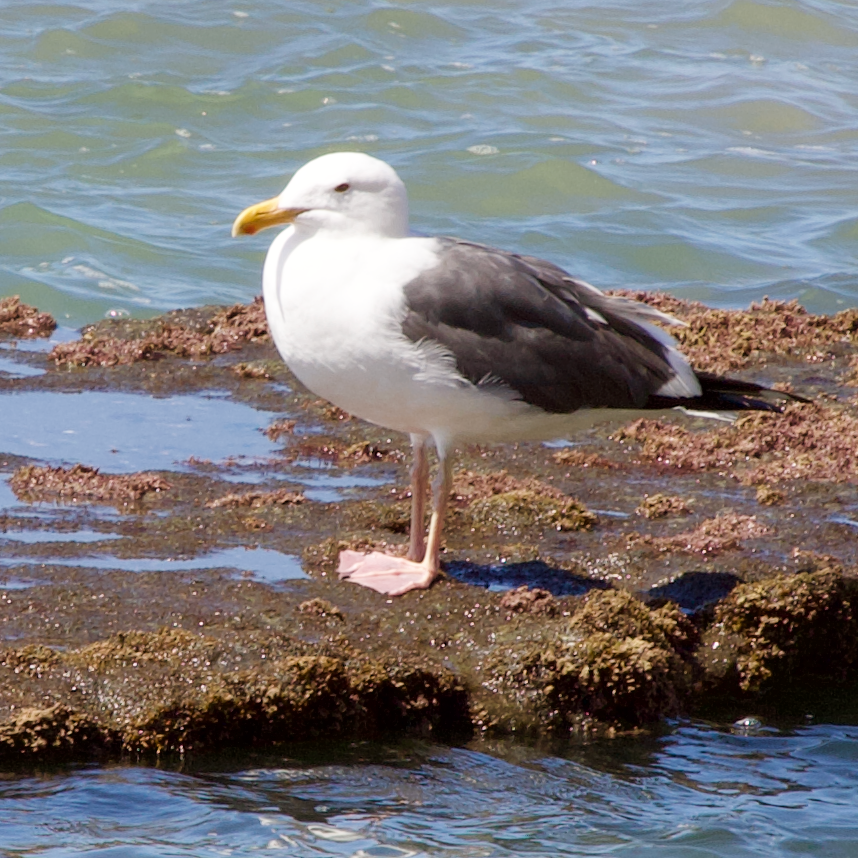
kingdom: Animalia
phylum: Chordata
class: Aves
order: Charadriiformes
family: Laridae
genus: Larus
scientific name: Larus occidentalis
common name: Western gull
